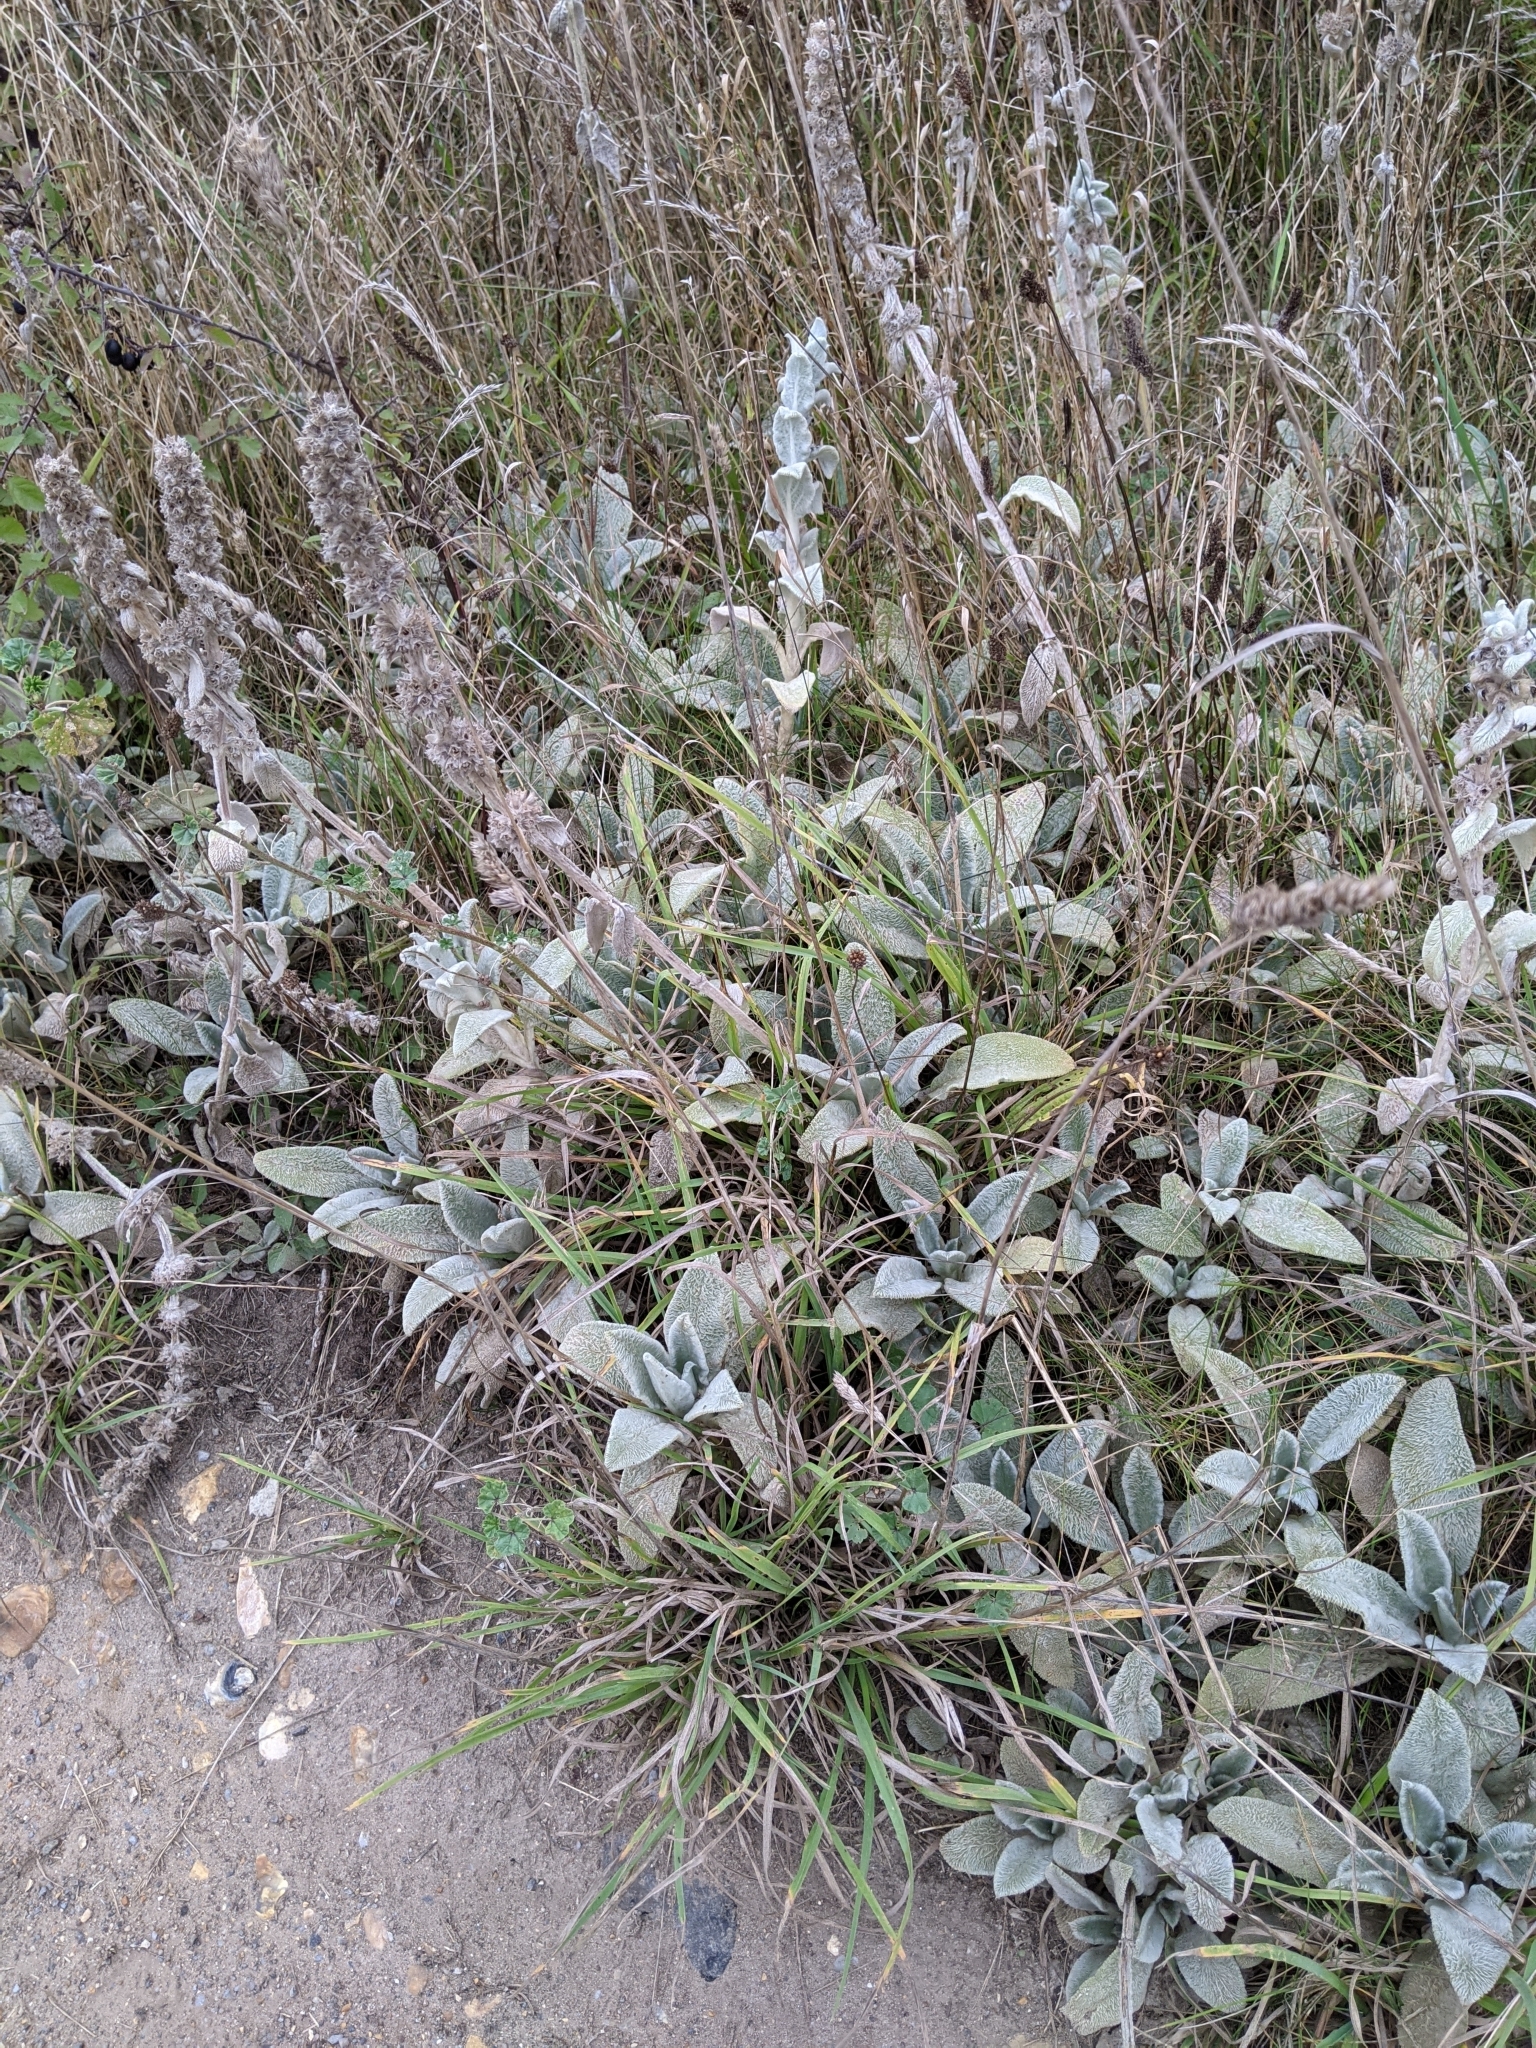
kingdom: Plantae
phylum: Tracheophyta
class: Magnoliopsida
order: Lamiales
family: Lamiaceae
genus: Stachys
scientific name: Stachys byzantina
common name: Lamb's-ear
